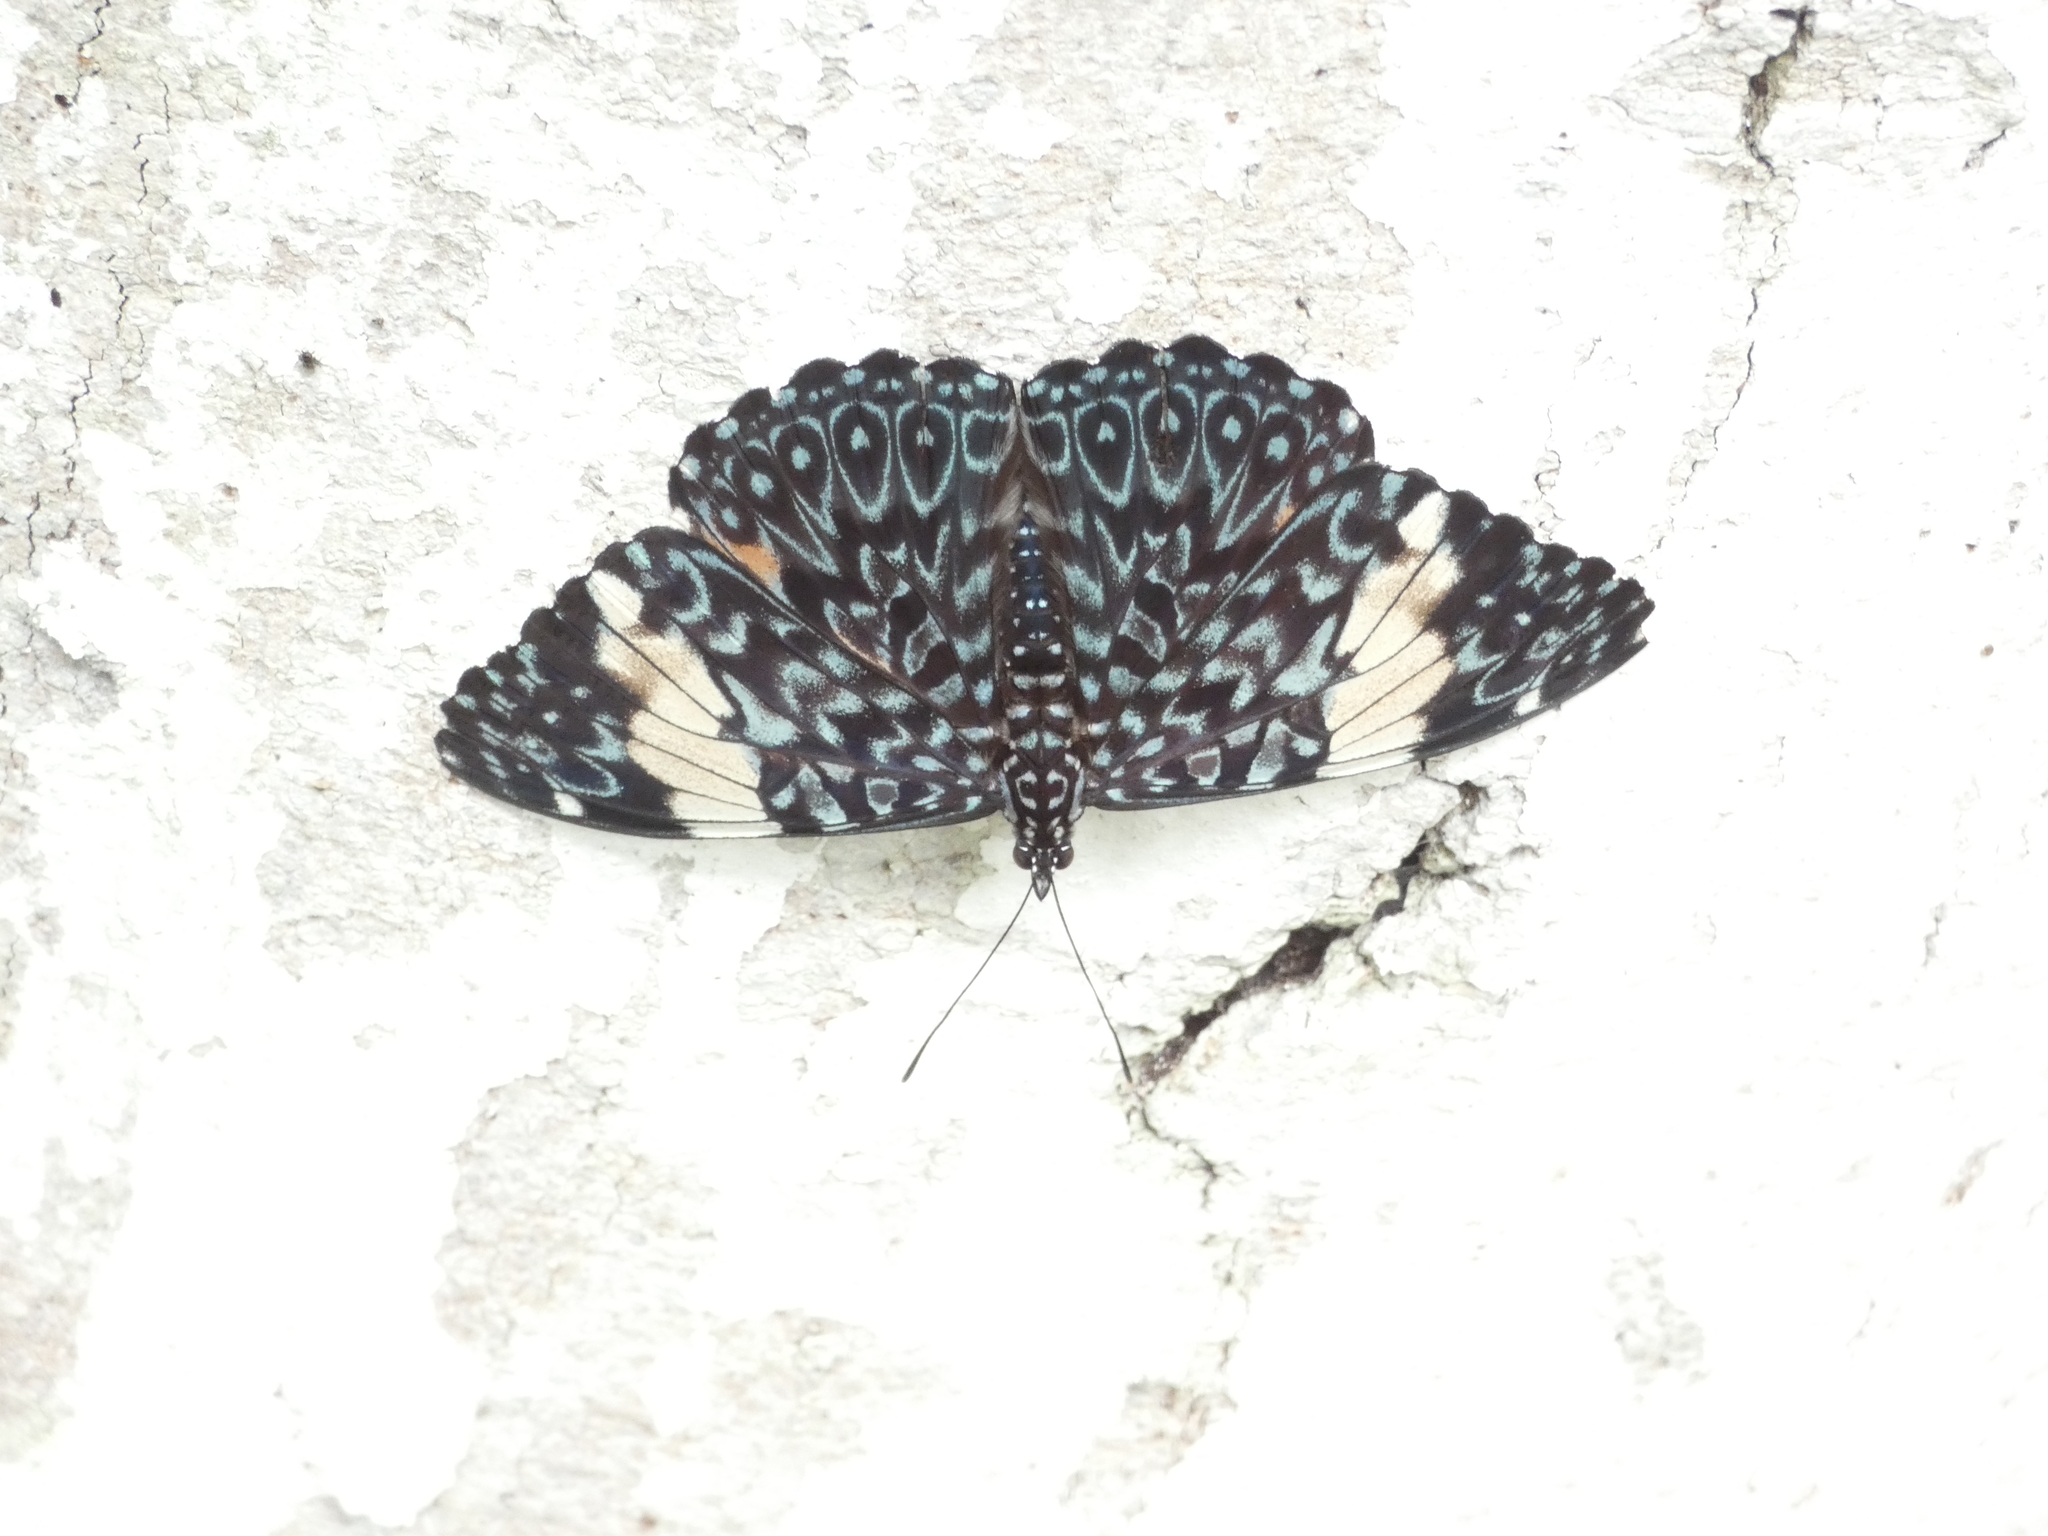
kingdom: Animalia
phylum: Arthropoda
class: Insecta
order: Lepidoptera
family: Nymphalidae
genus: Hamadryas
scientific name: Hamadryas amphinome
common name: Red cracker
